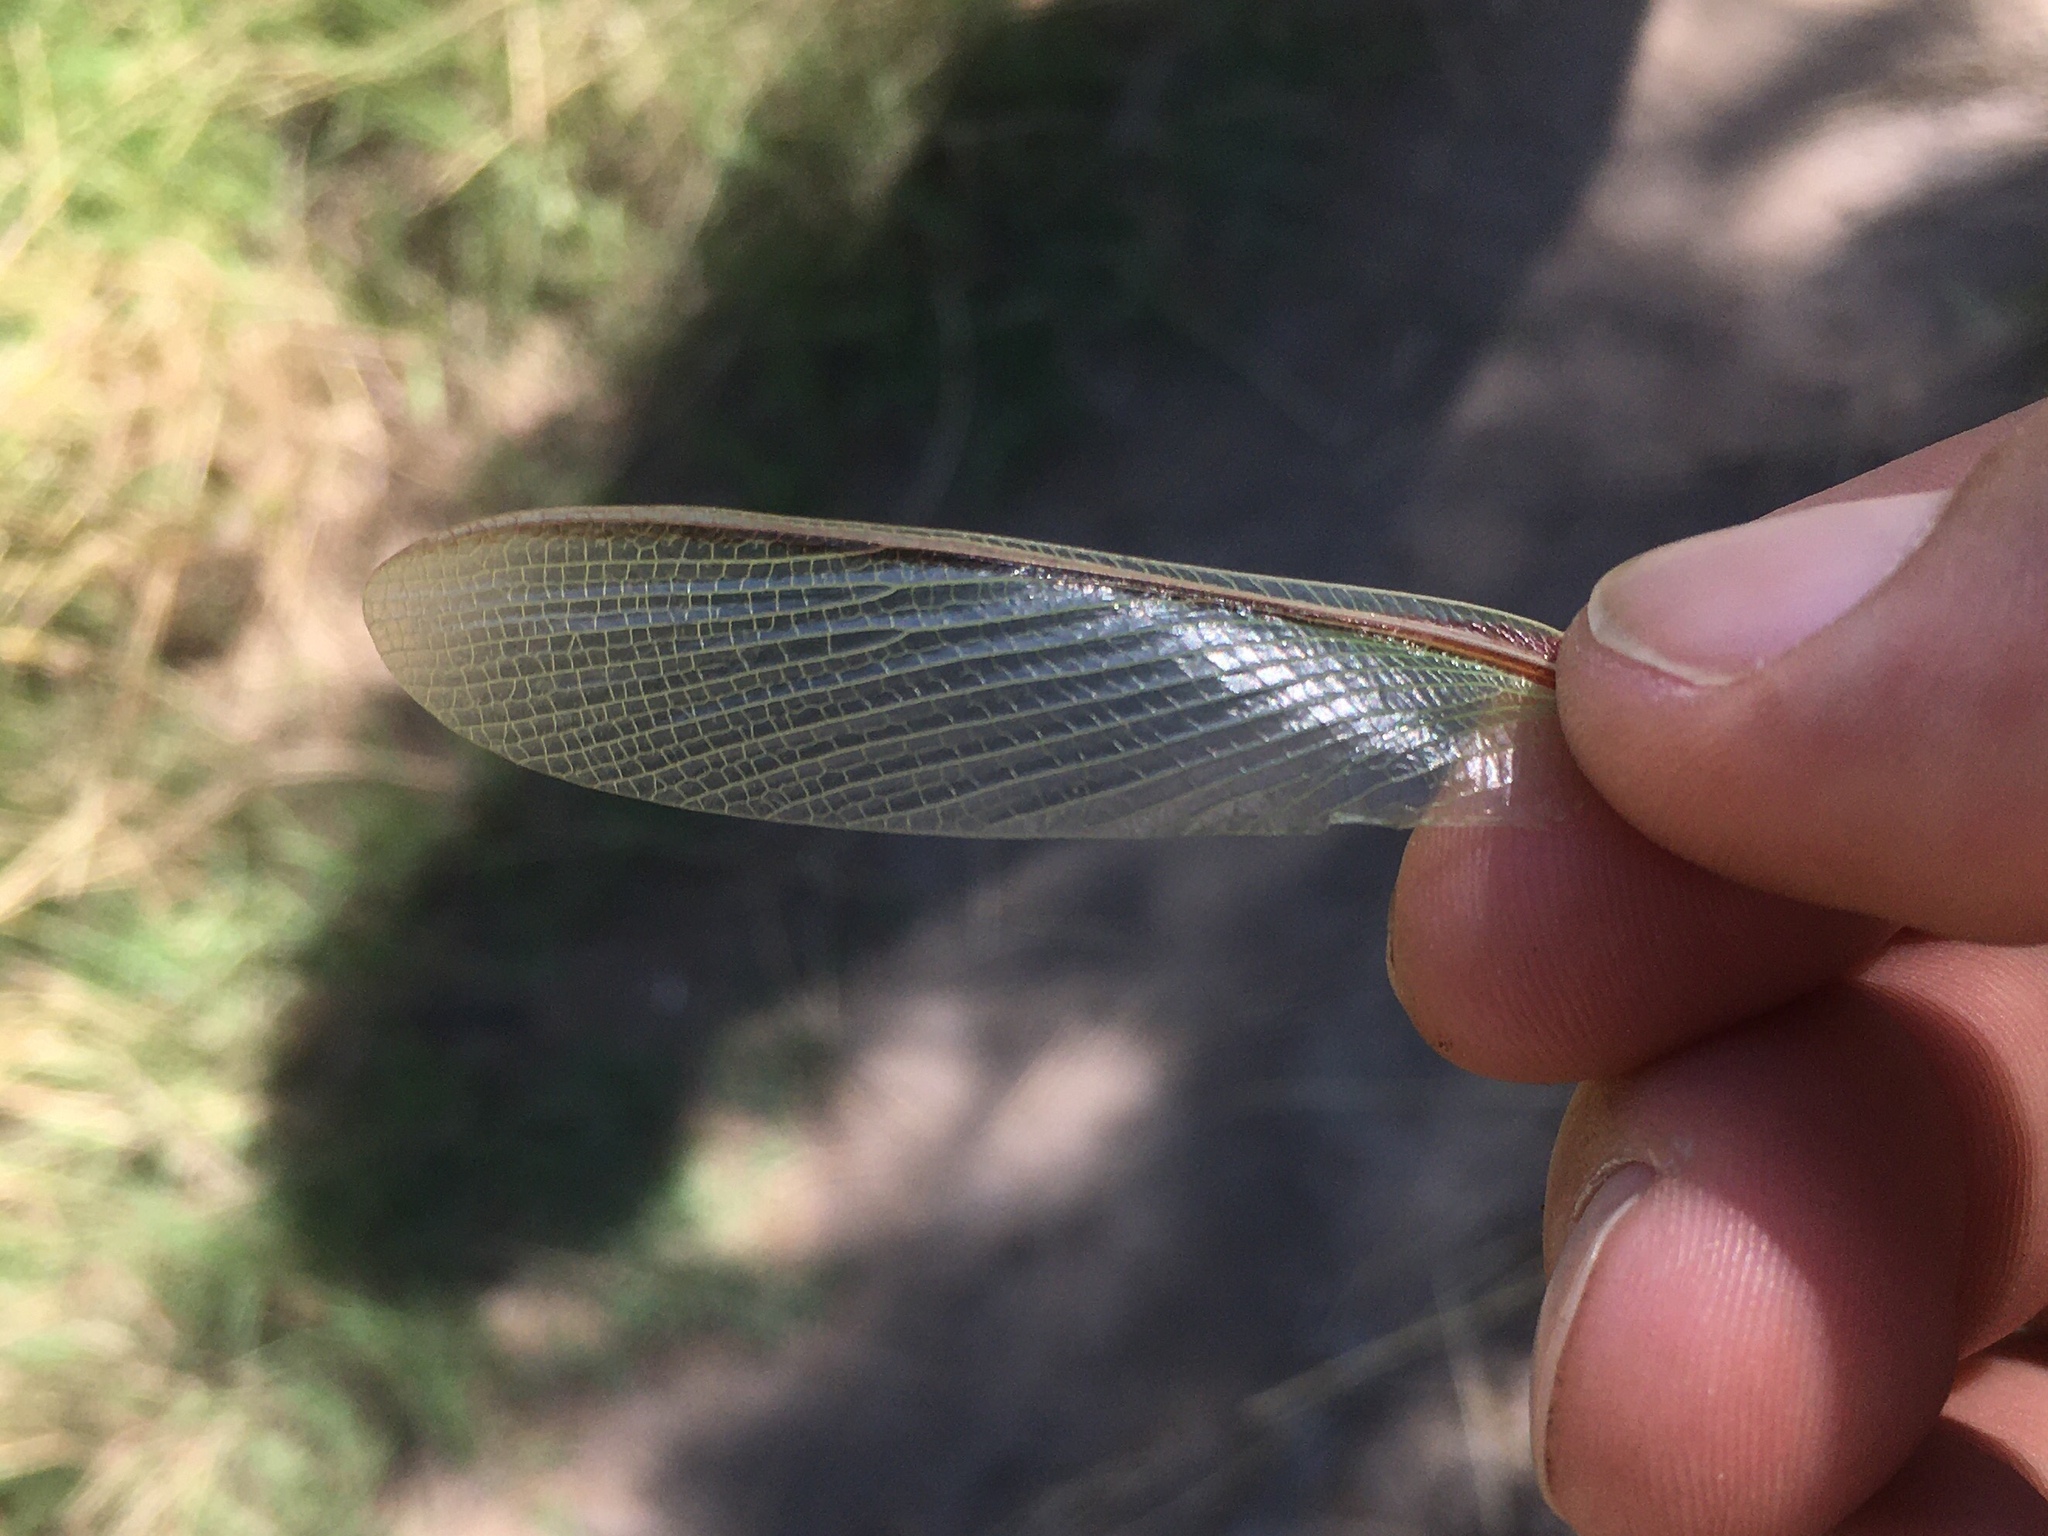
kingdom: Animalia
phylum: Arthropoda
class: Insecta
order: Mantodea
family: Coptopterygidae
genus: Coptopteryx
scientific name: Coptopteryx argentina
